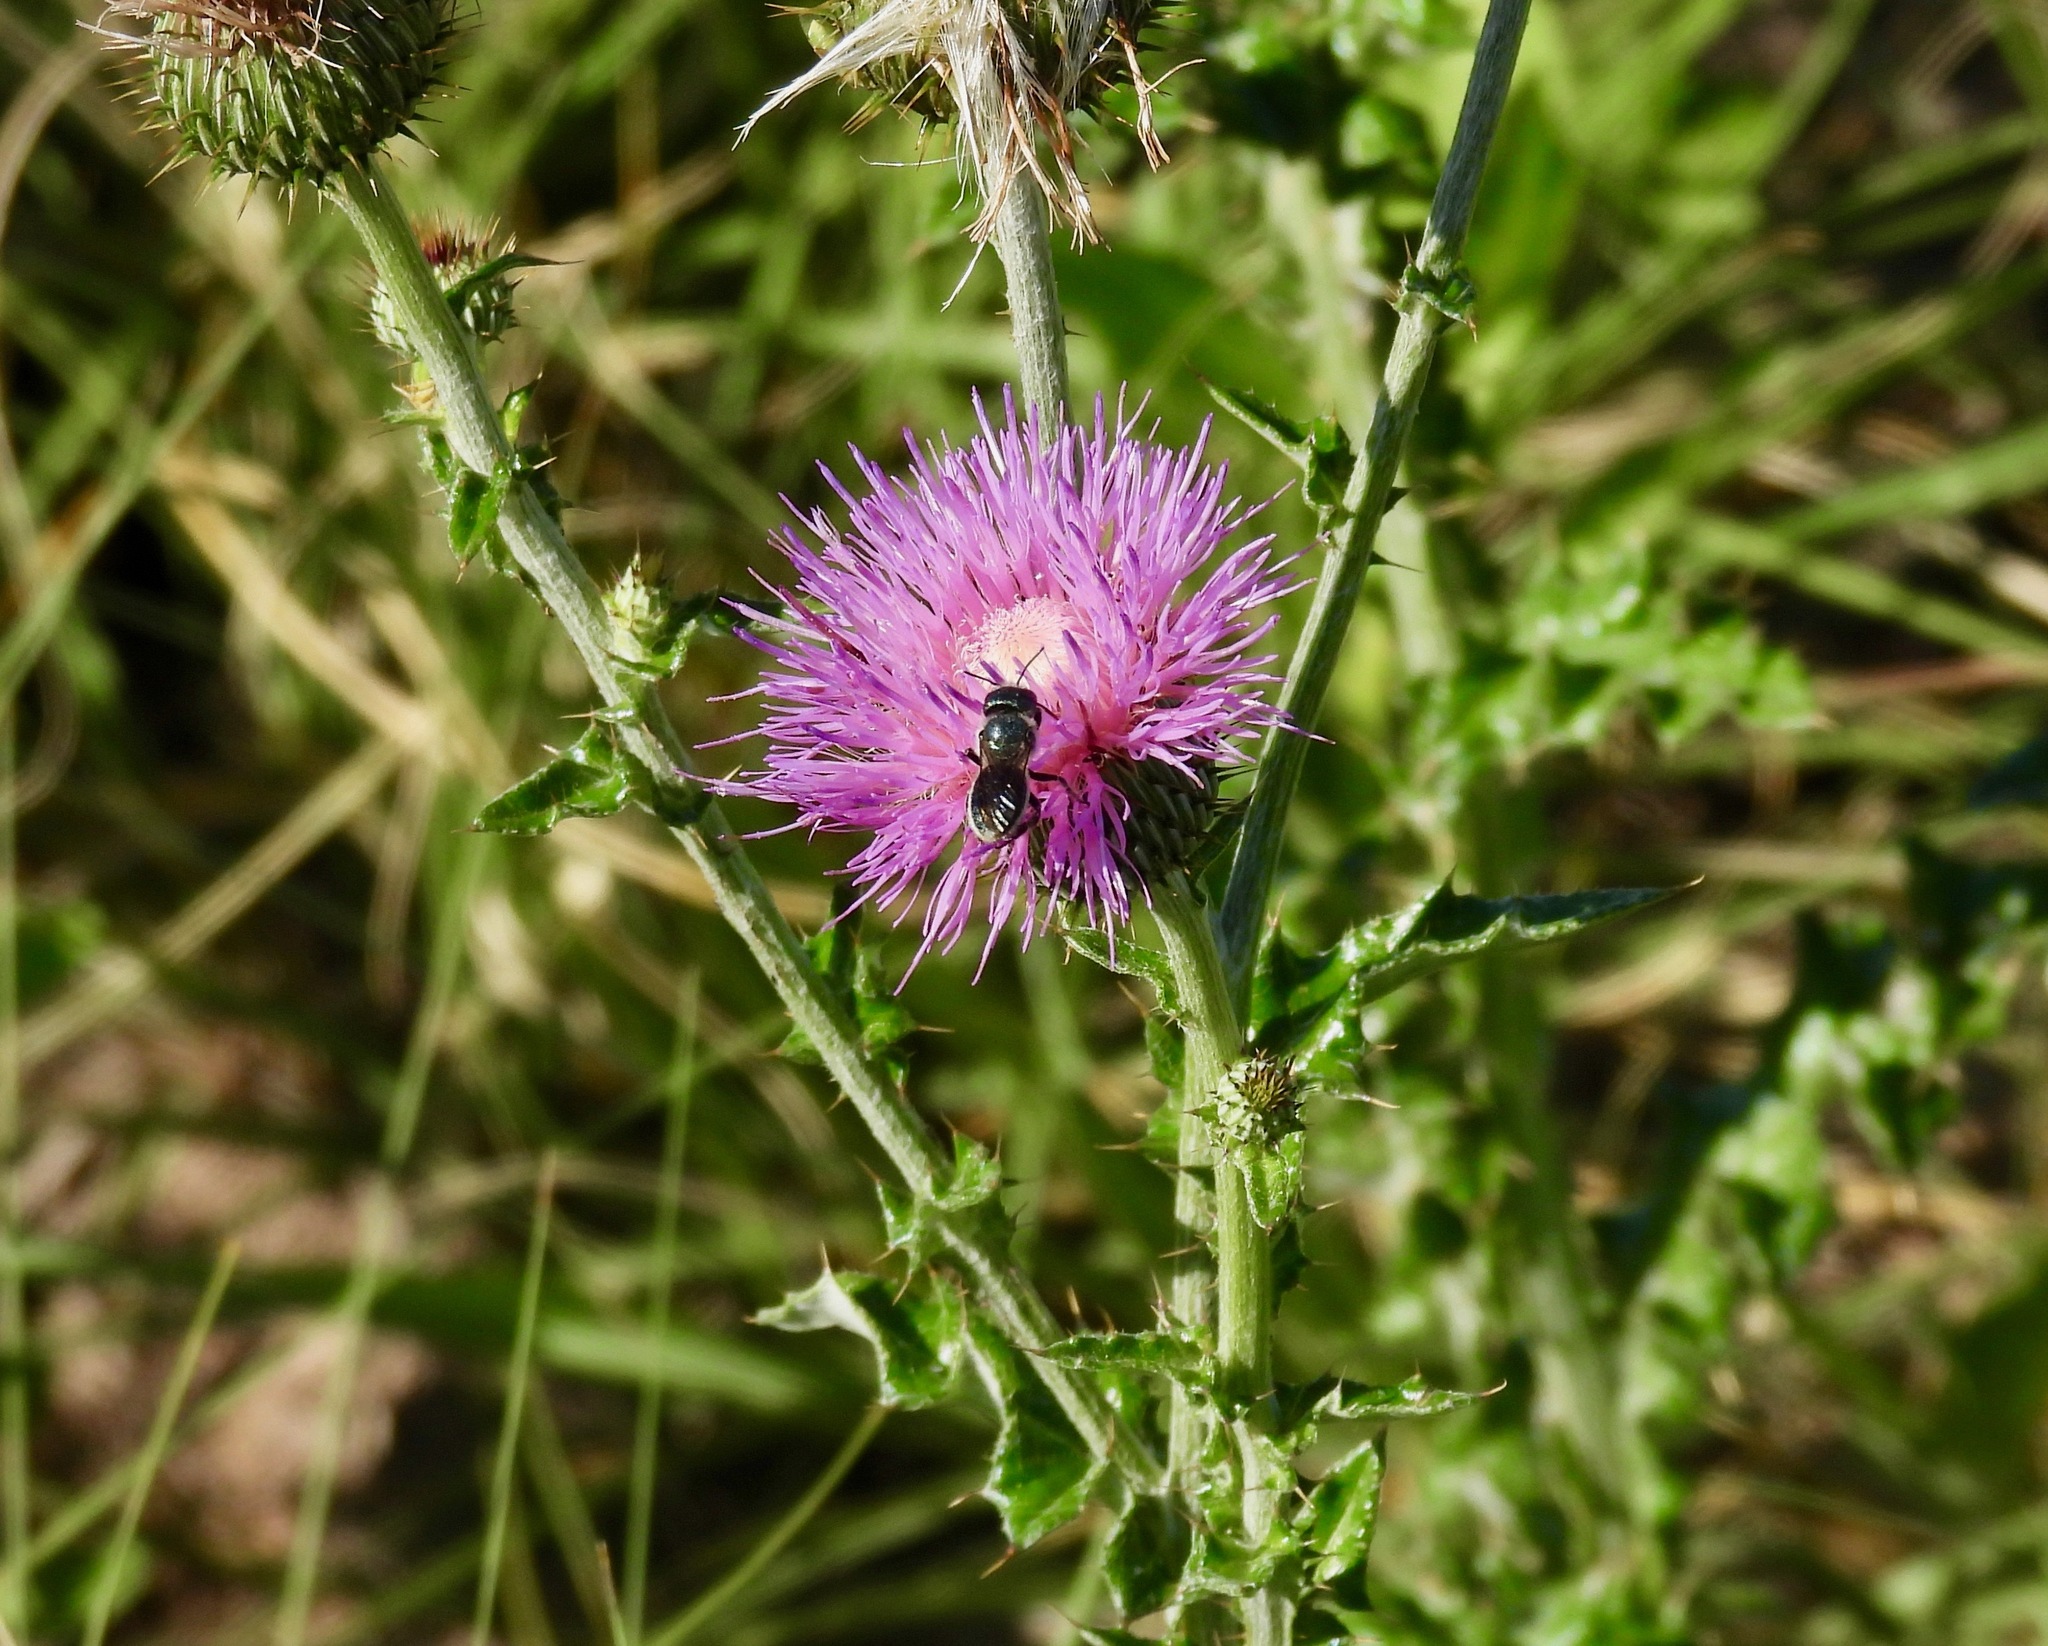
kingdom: Animalia
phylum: Arthropoda
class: Insecta
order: Hymenoptera
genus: Helicosmia
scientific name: Helicosmia
